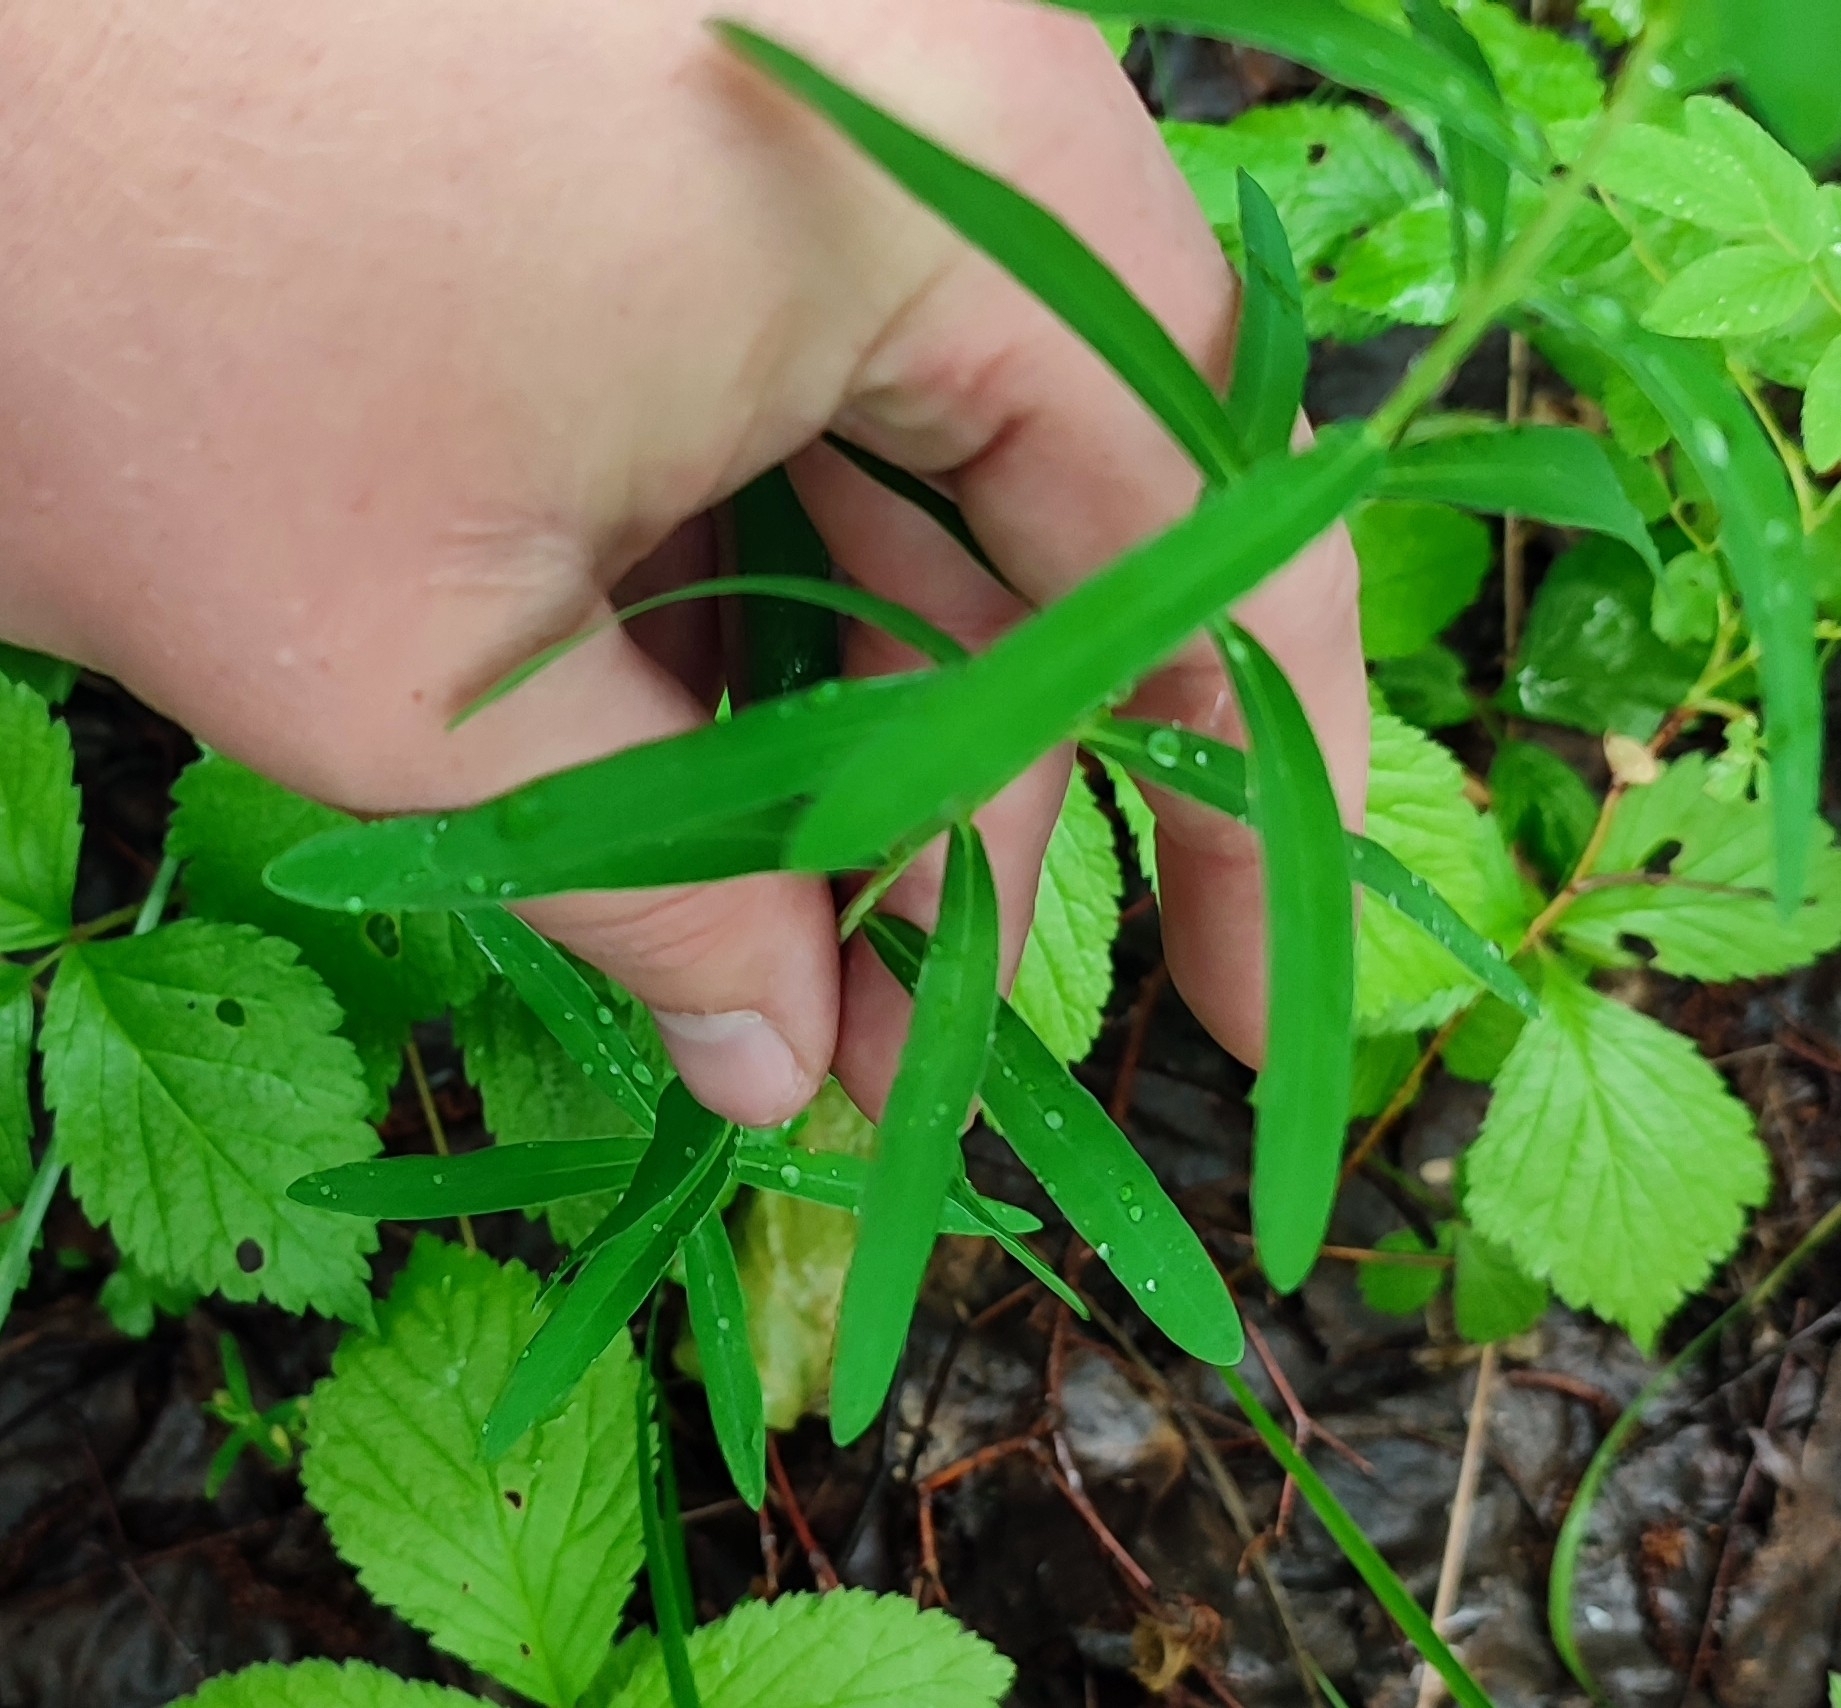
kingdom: Plantae
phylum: Tracheophyta
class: Magnoliopsida
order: Malpighiales
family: Euphorbiaceae
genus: Euphorbia
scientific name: Euphorbia virgata
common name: Leafy spurge
